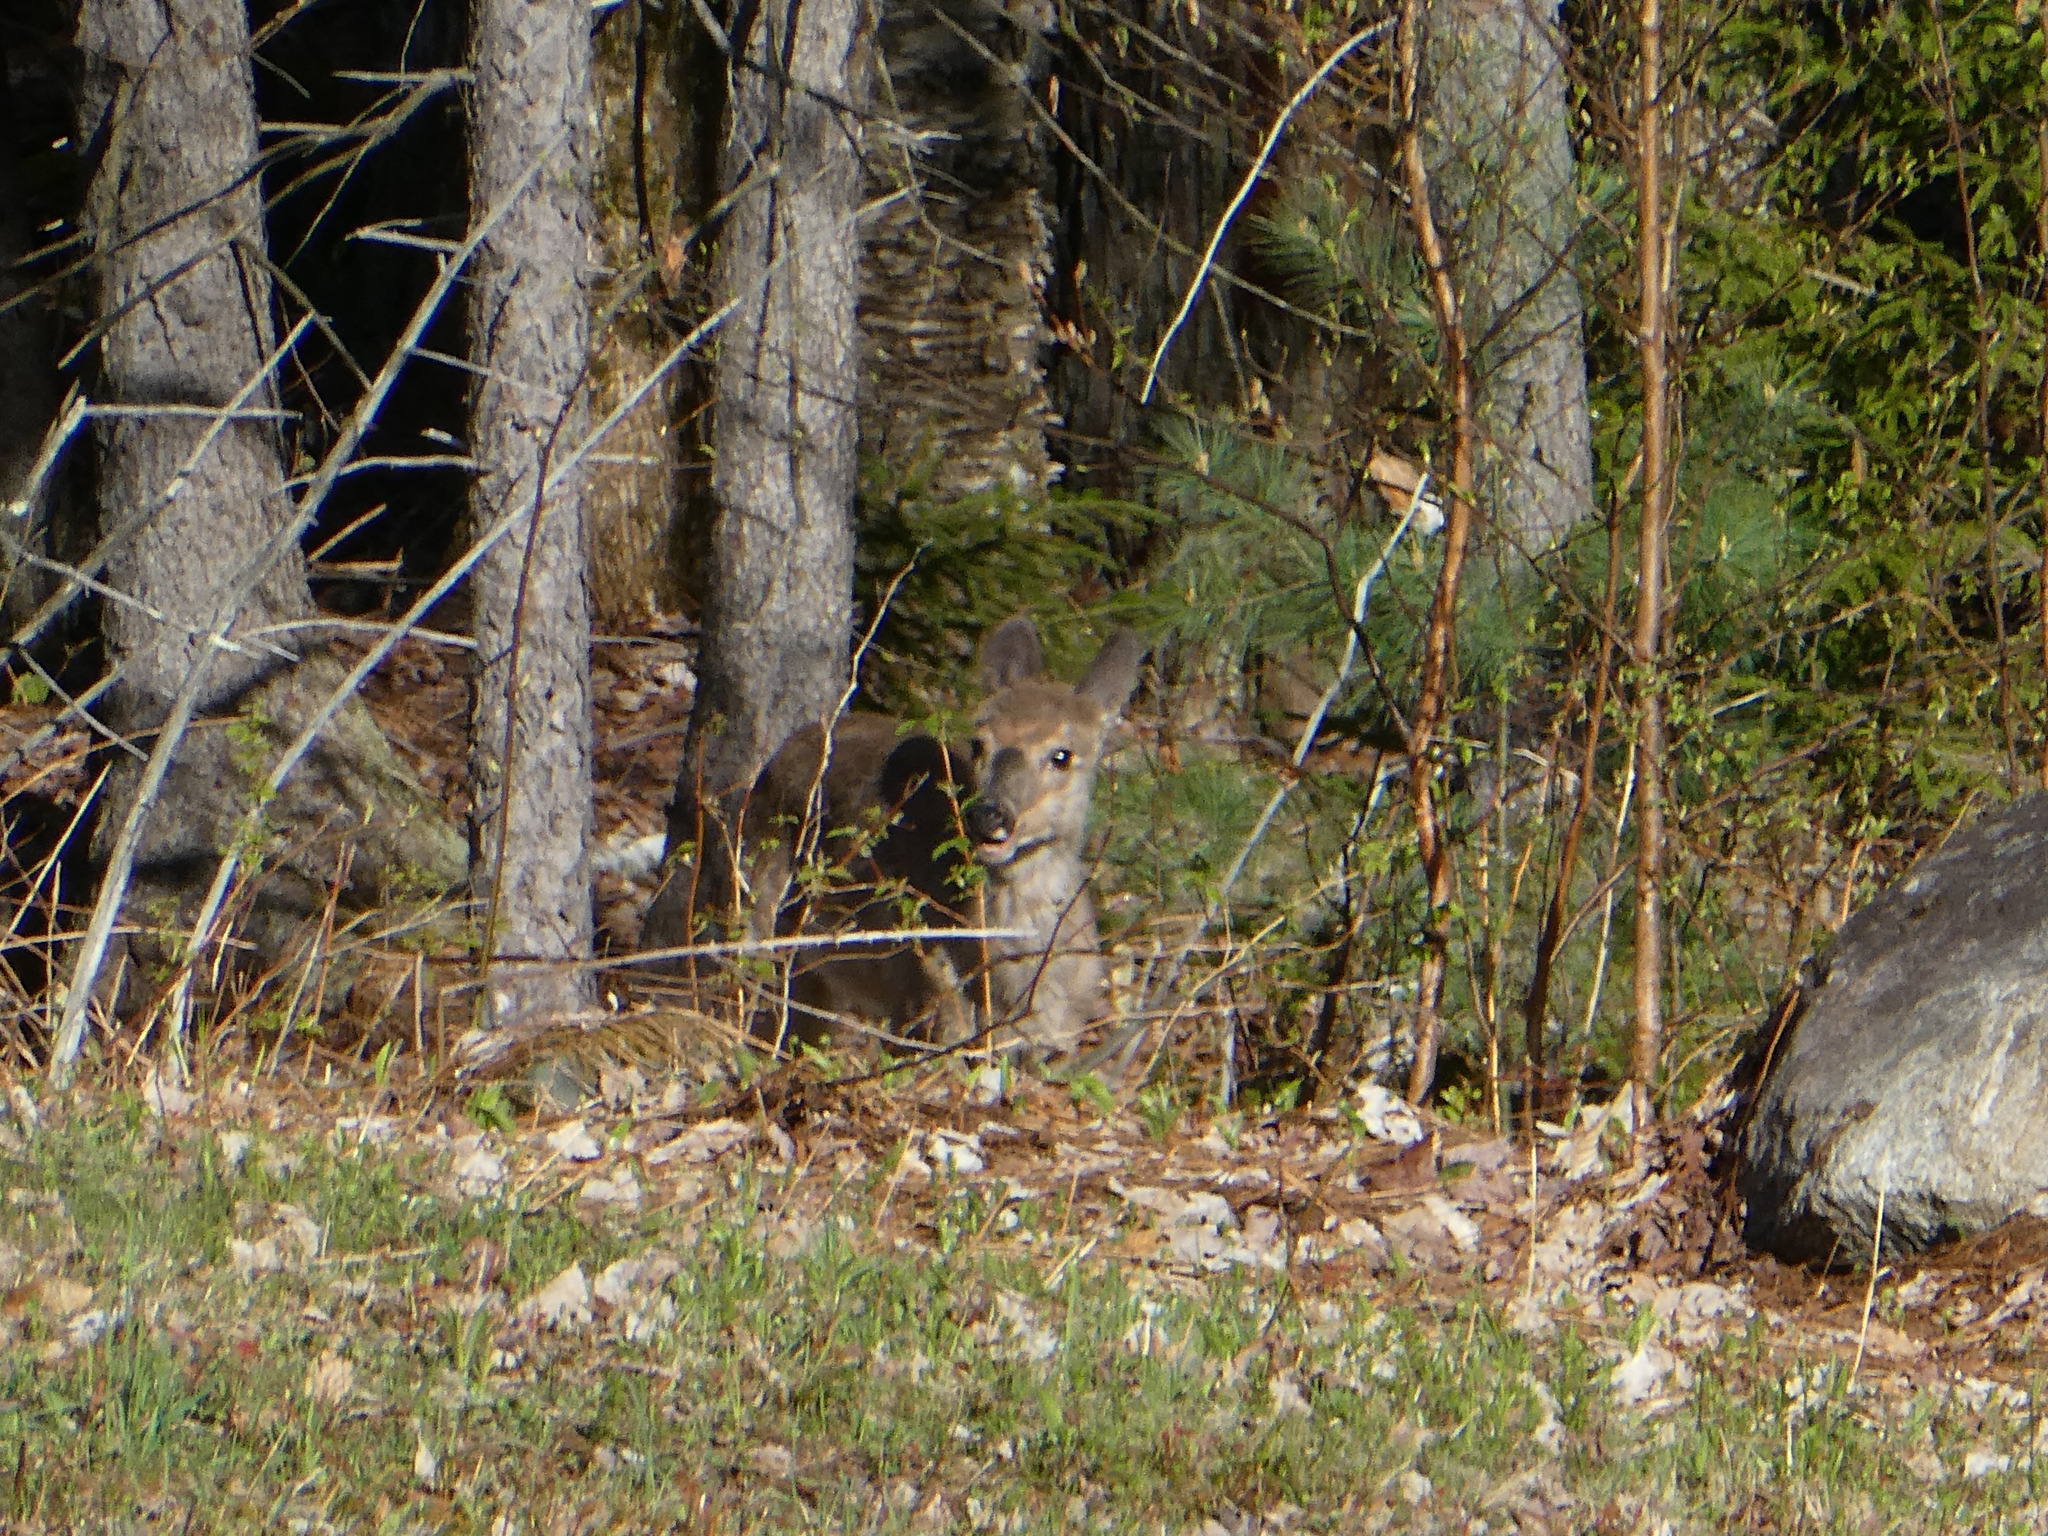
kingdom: Animalia
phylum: Chordata
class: Mammalia
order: Artiodactyla
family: Cervidae
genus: Odocoileus
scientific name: Odocoileus virginianus
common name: White-tailed deer
